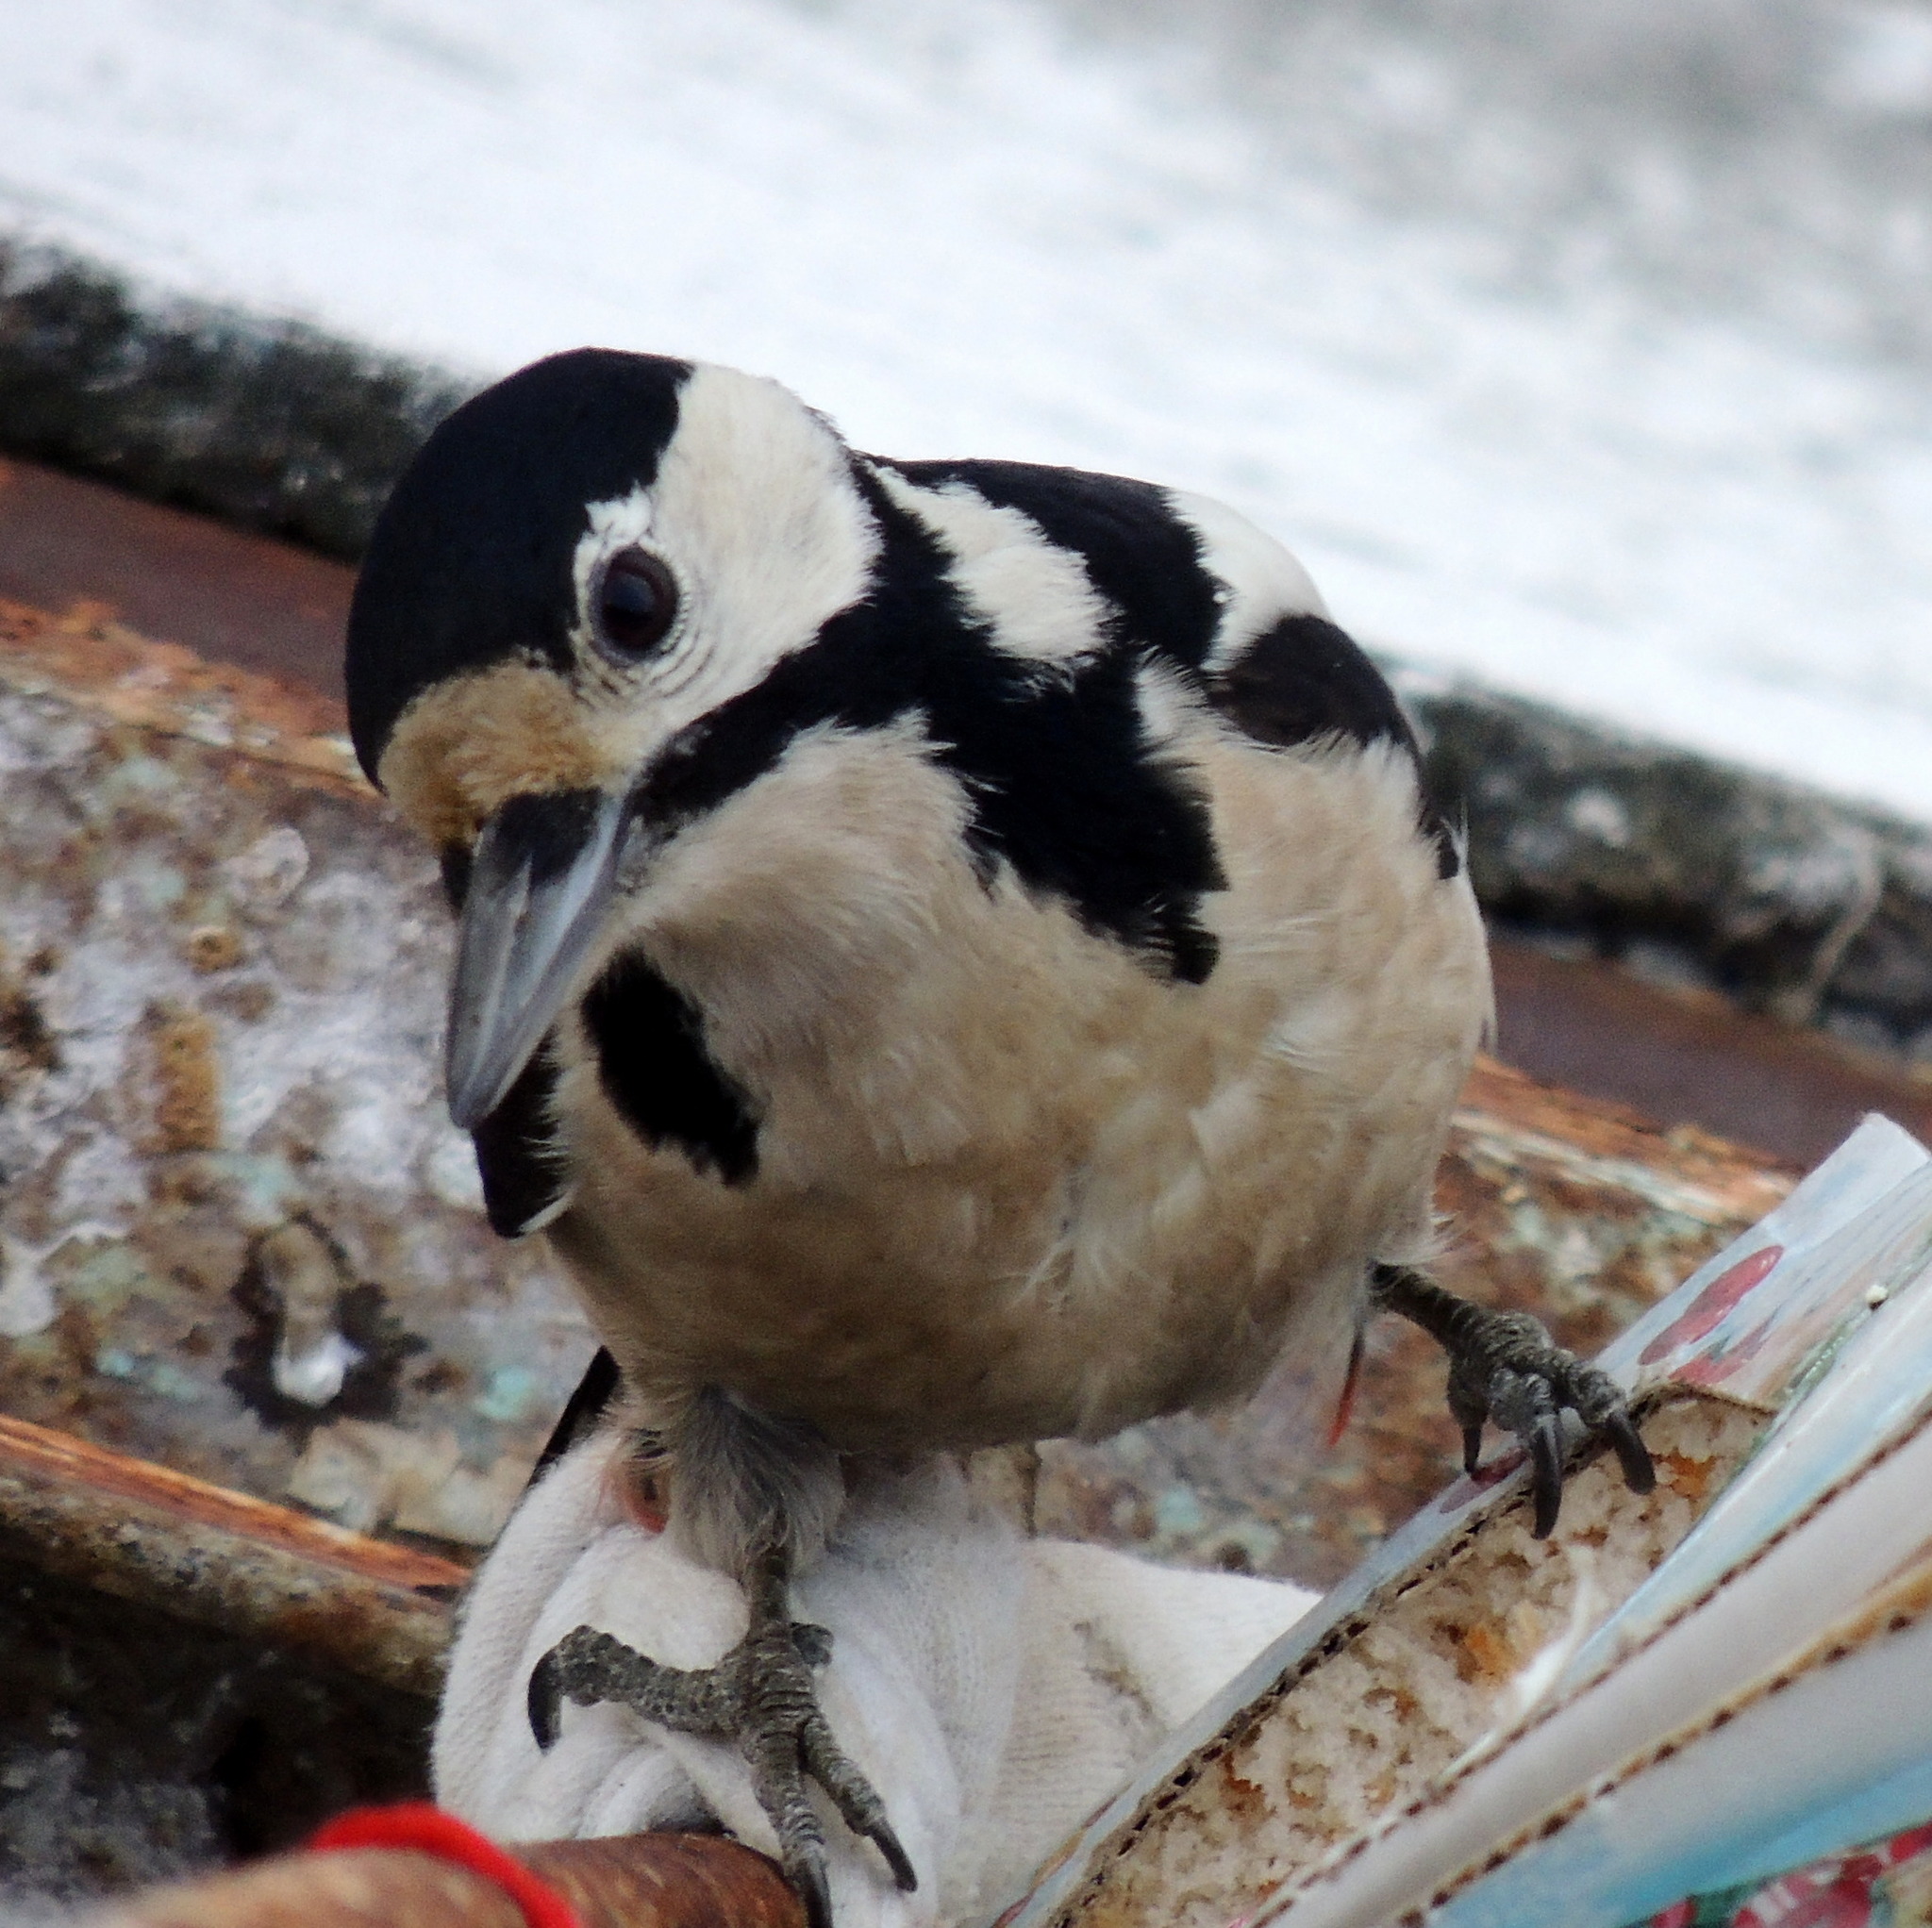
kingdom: Animalia
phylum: Chordata
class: Aves
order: Piciformes
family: Picidae
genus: Dendrocopos
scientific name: Dendrocopos major
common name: Great spotted woodpecker
